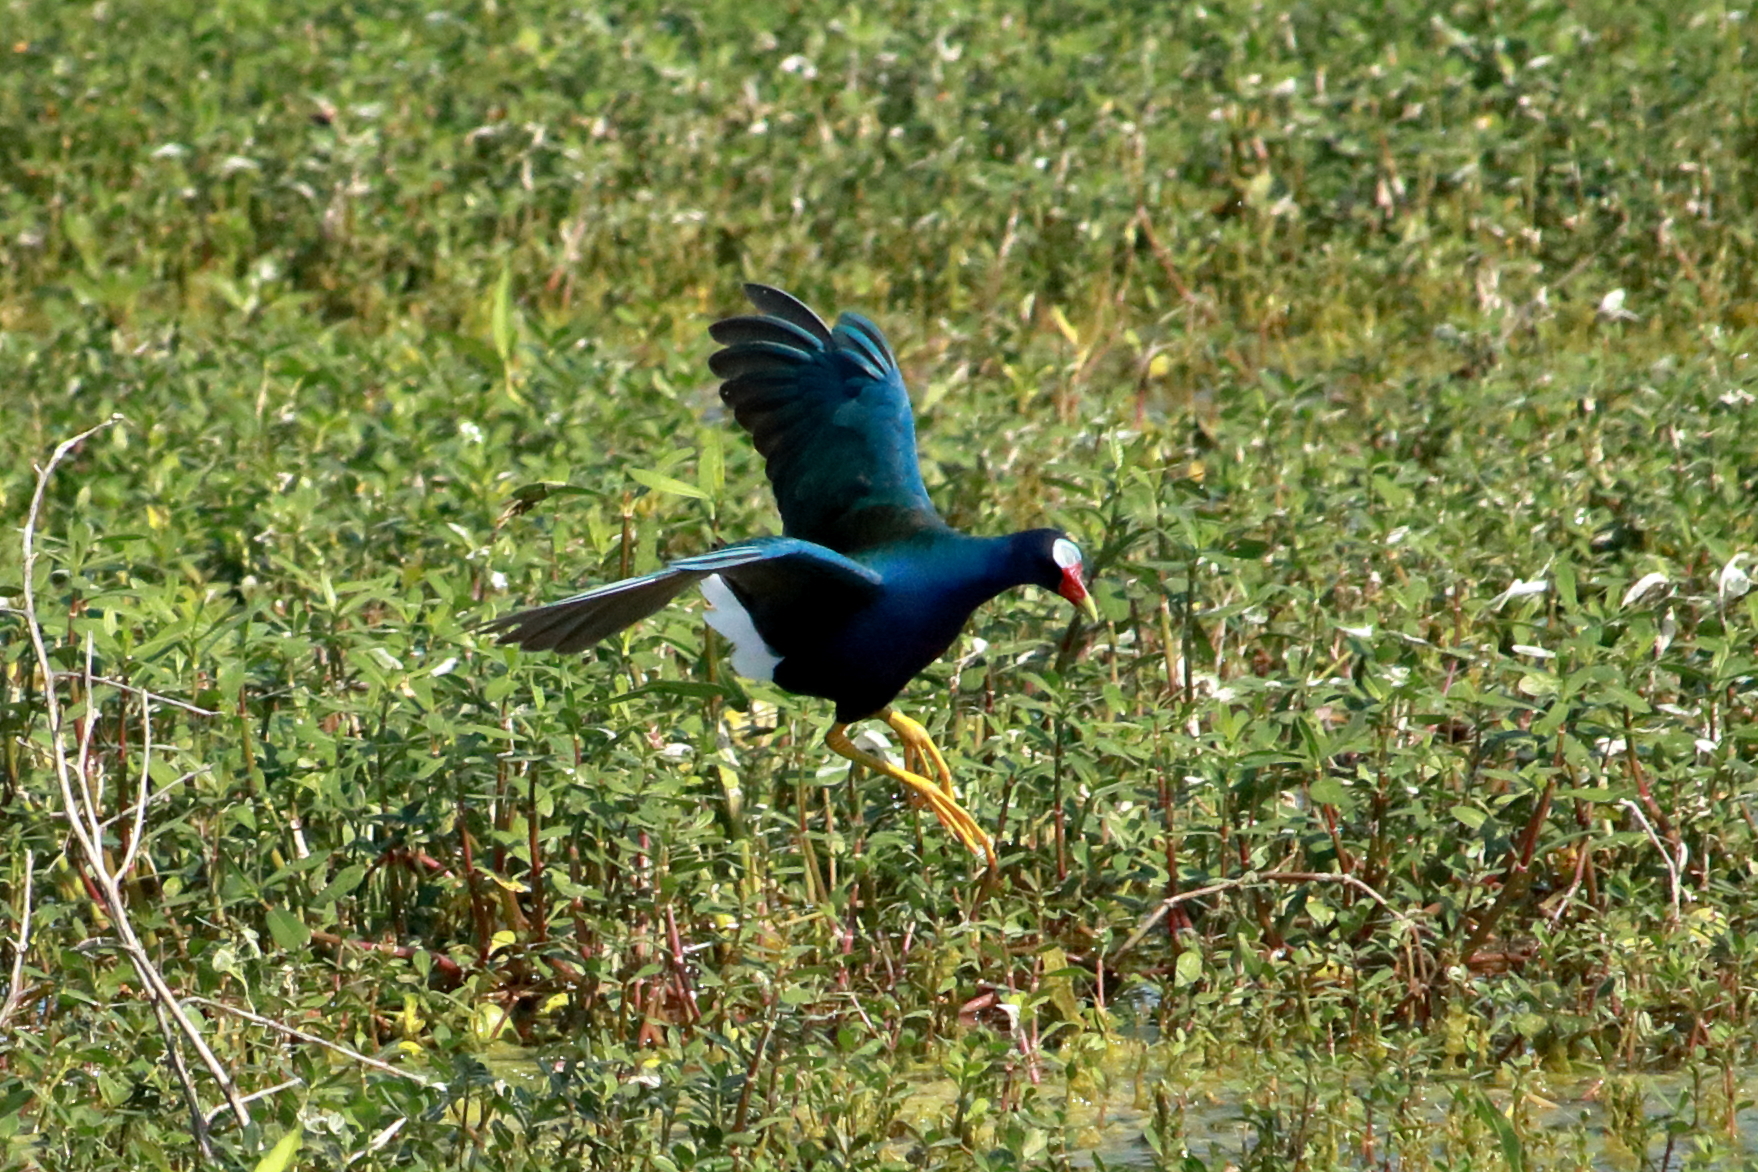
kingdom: Animalia
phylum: Chordata
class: Aves
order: Gruiformes
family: Rallidae
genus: Porphyrio
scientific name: Porphyrio martinica
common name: Purple gallinule
